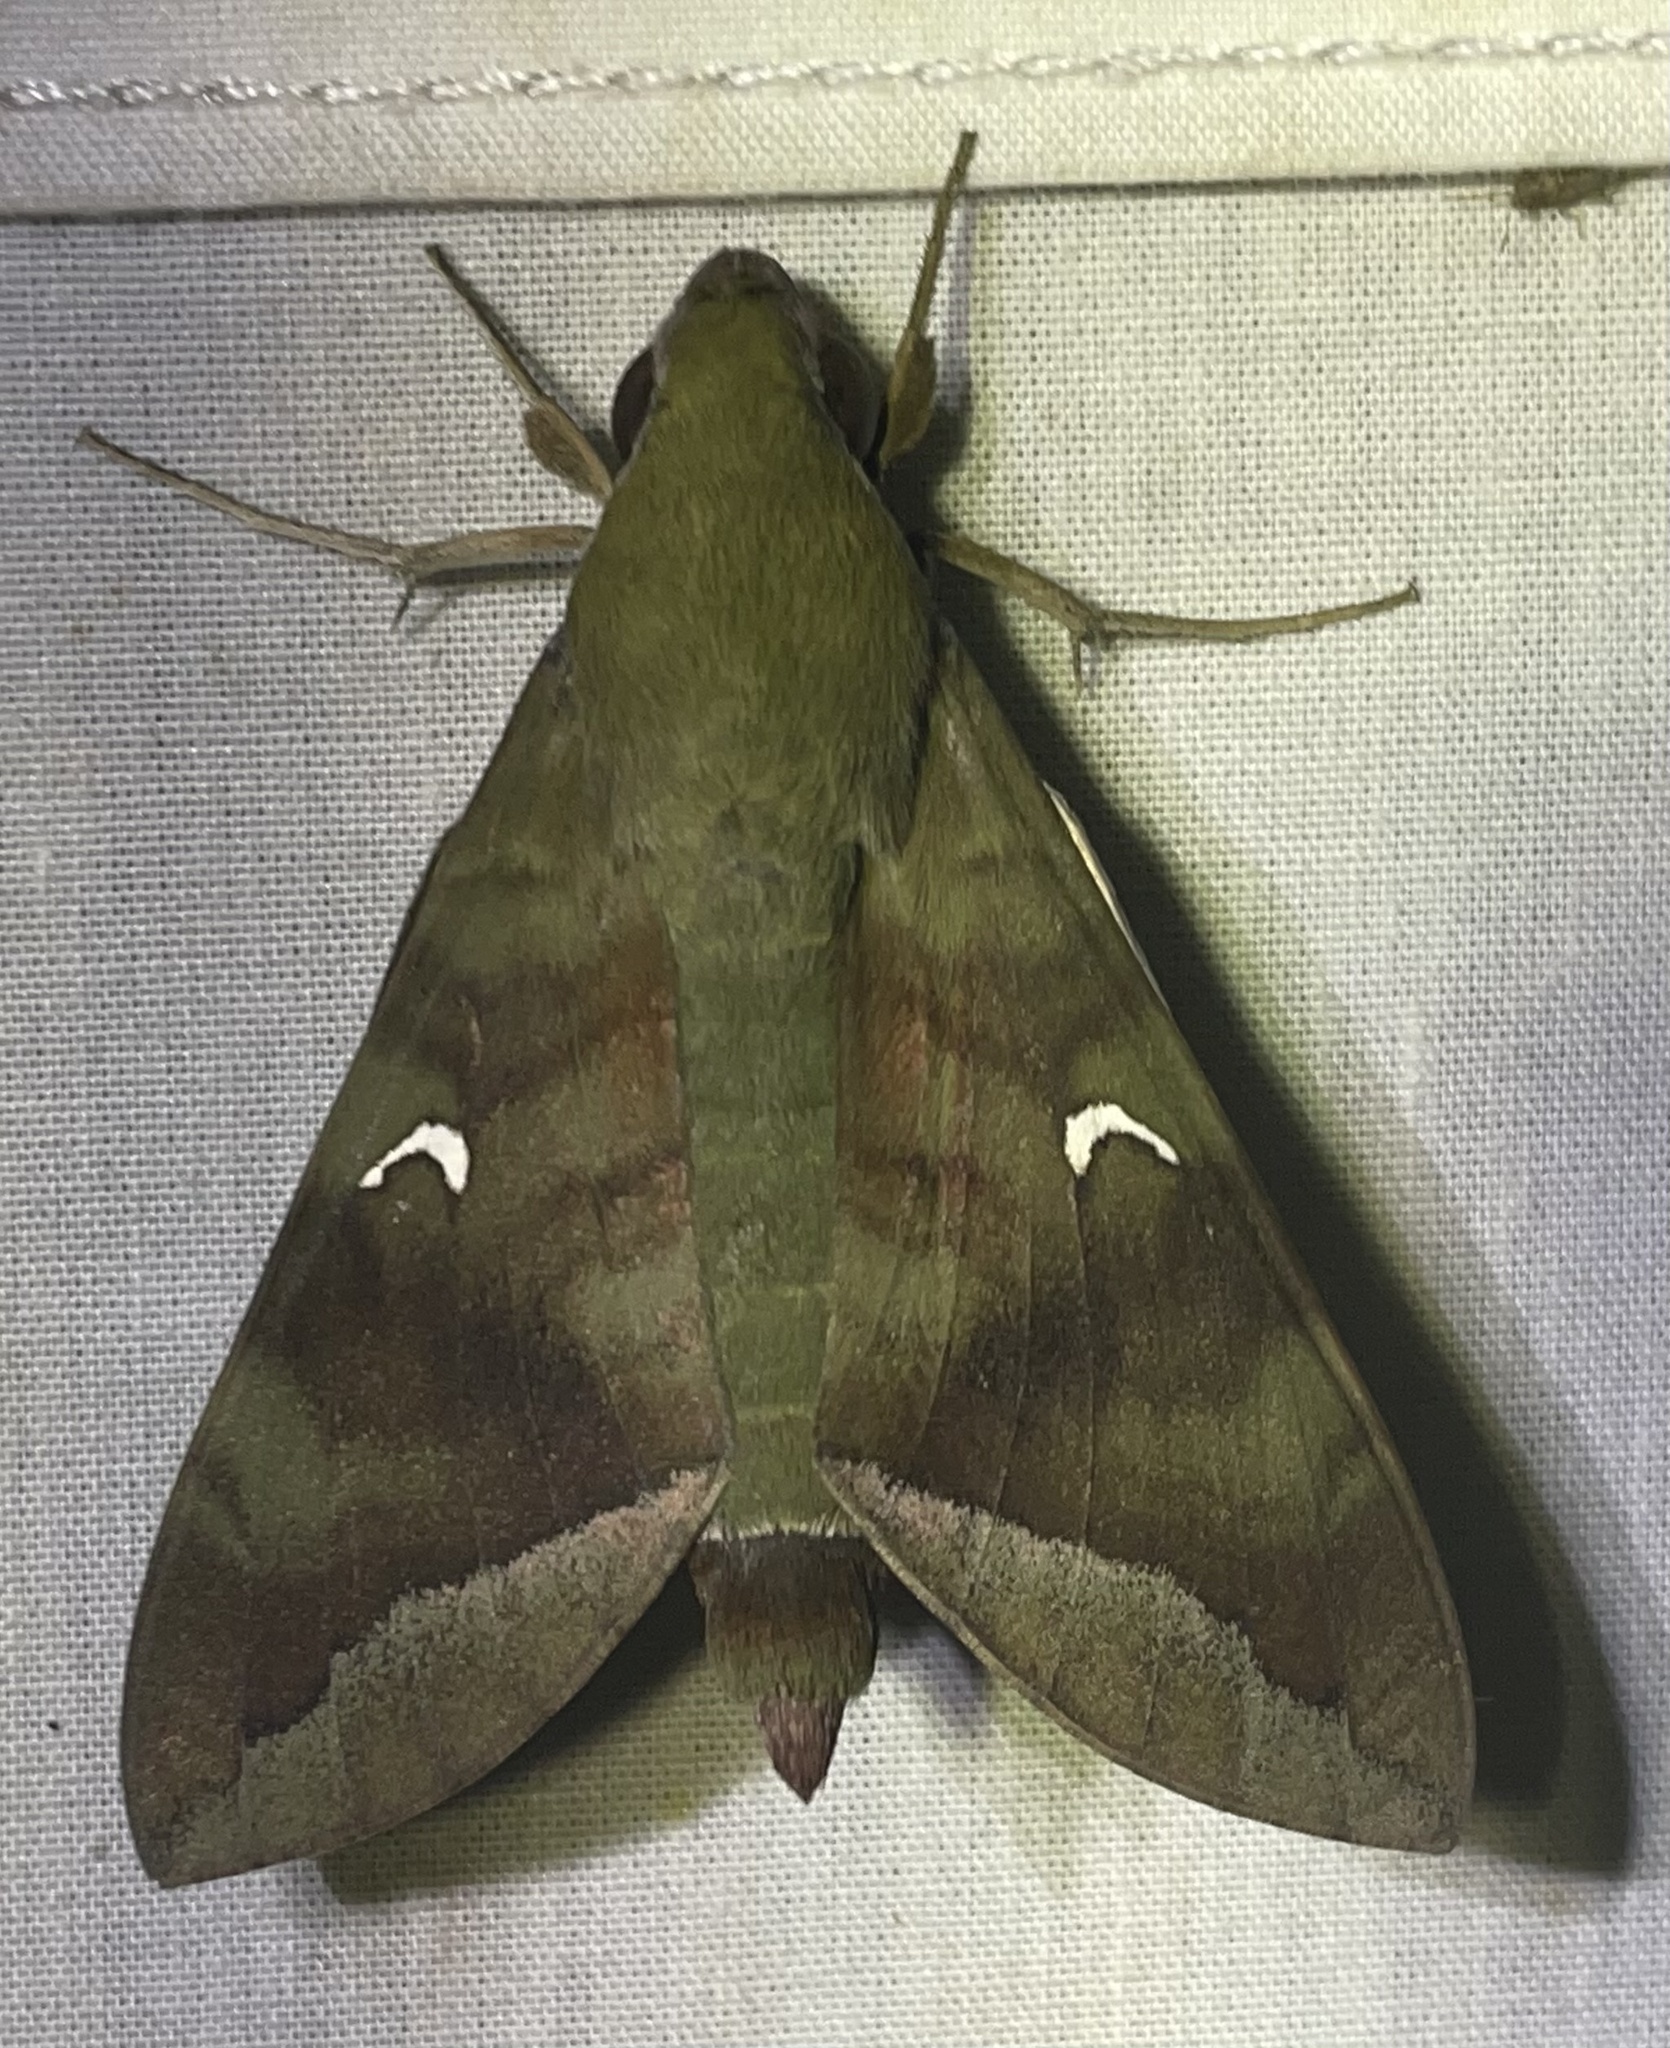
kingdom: Animalia
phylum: Arthropoda
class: Insecta
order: Lepidoptera
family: Sphingidae
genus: Nephele
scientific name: Nephele comma
